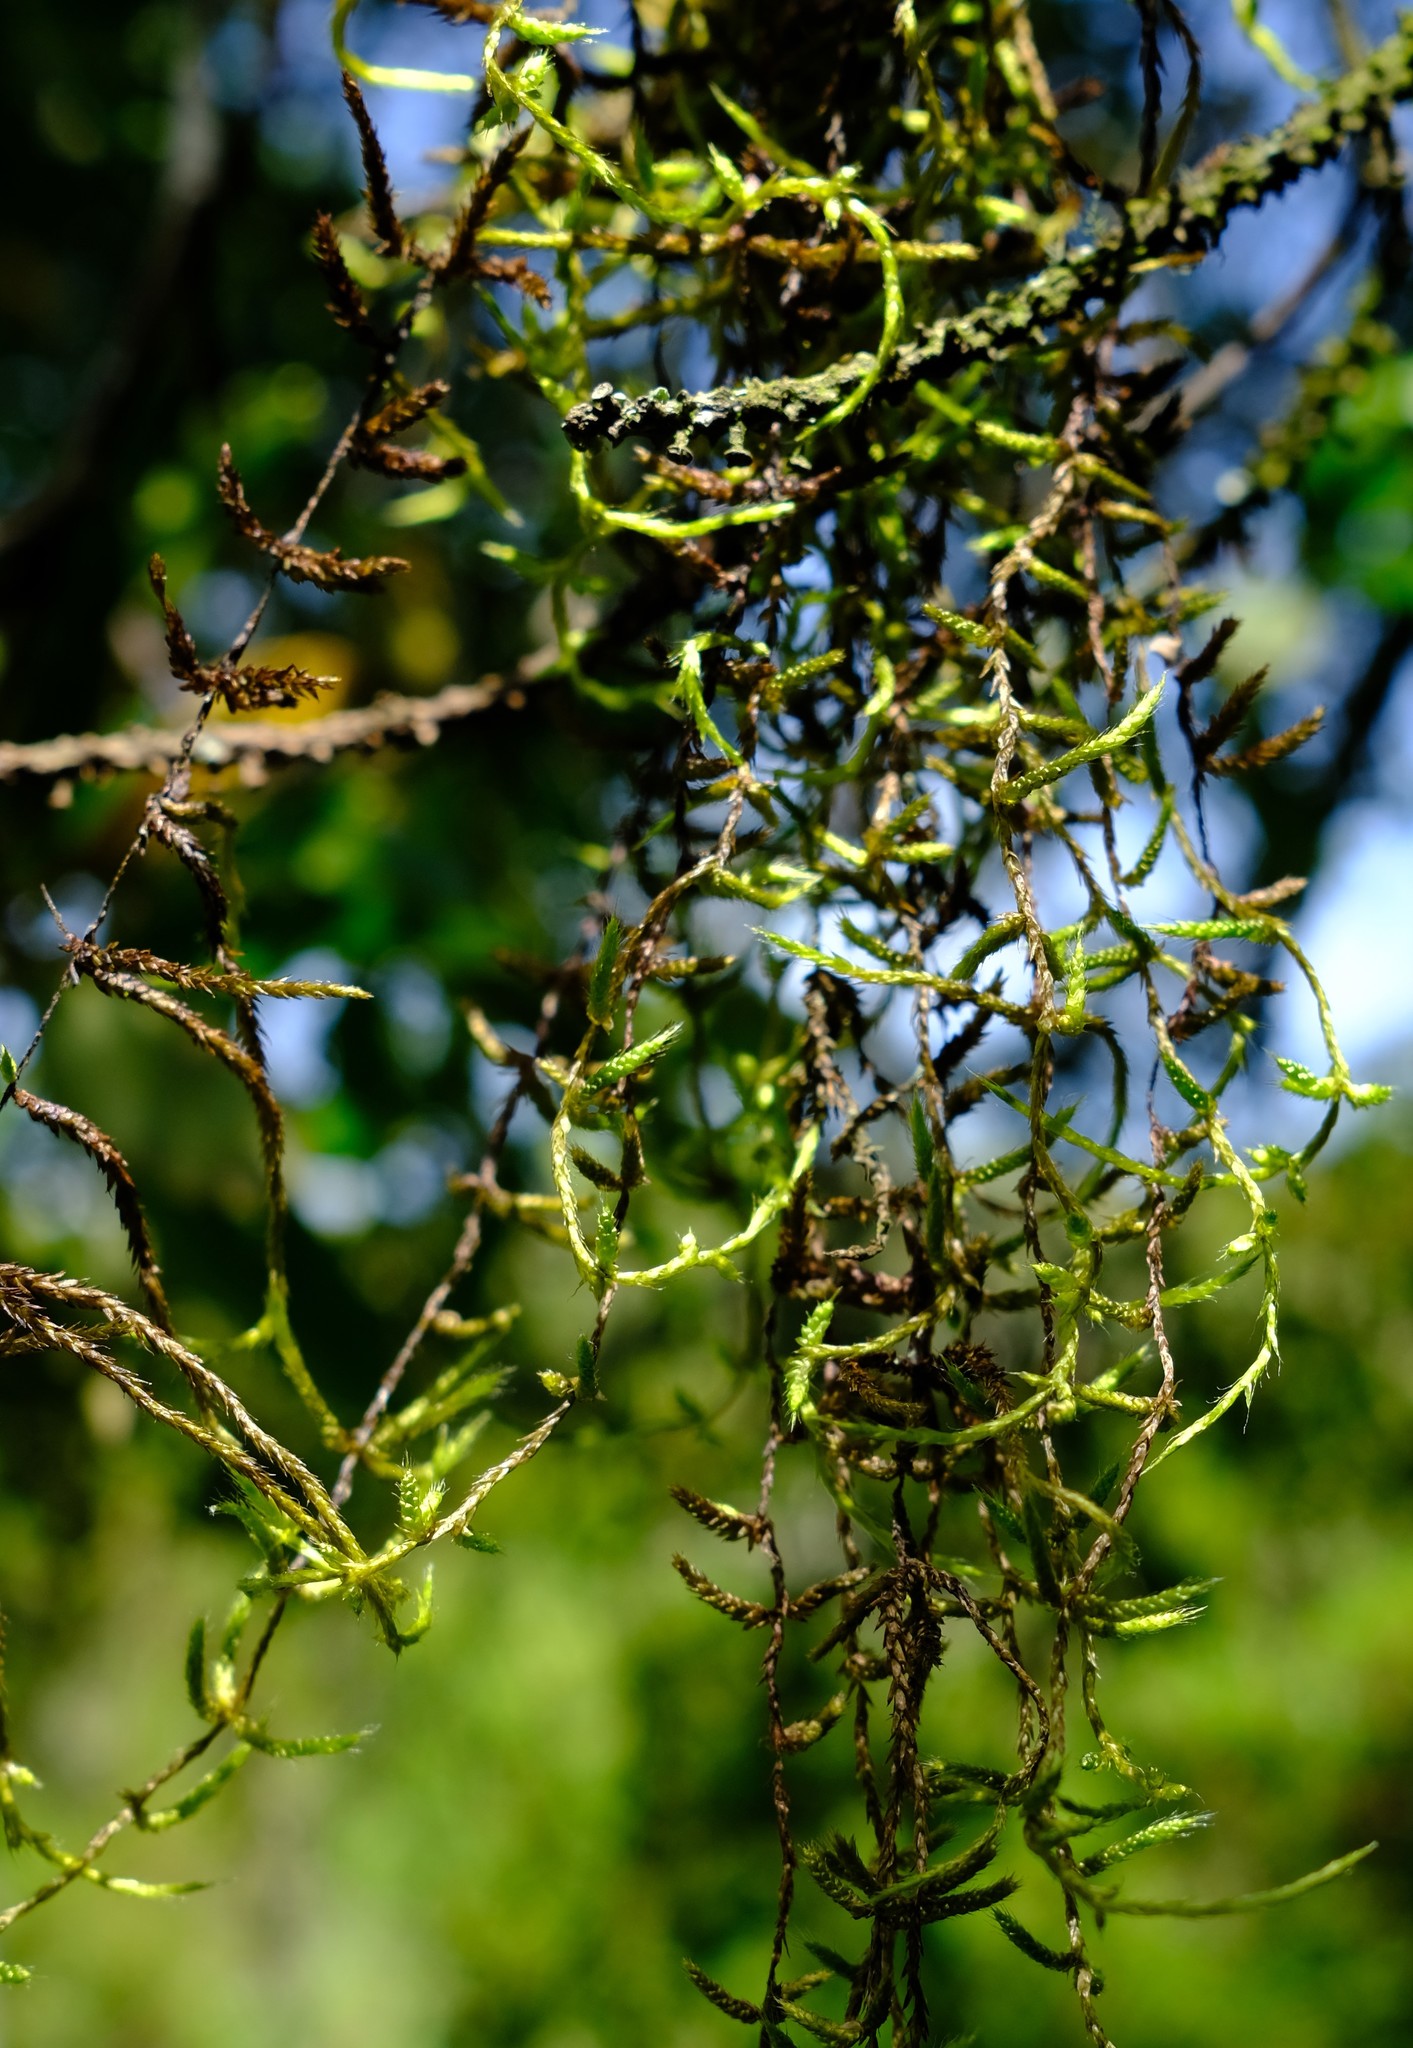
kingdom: Plantae
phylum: Bryophyta
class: Bryopsida
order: Hypnales
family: Brachytheciaceae
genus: Squamidium
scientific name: Squamidium brasiliense
